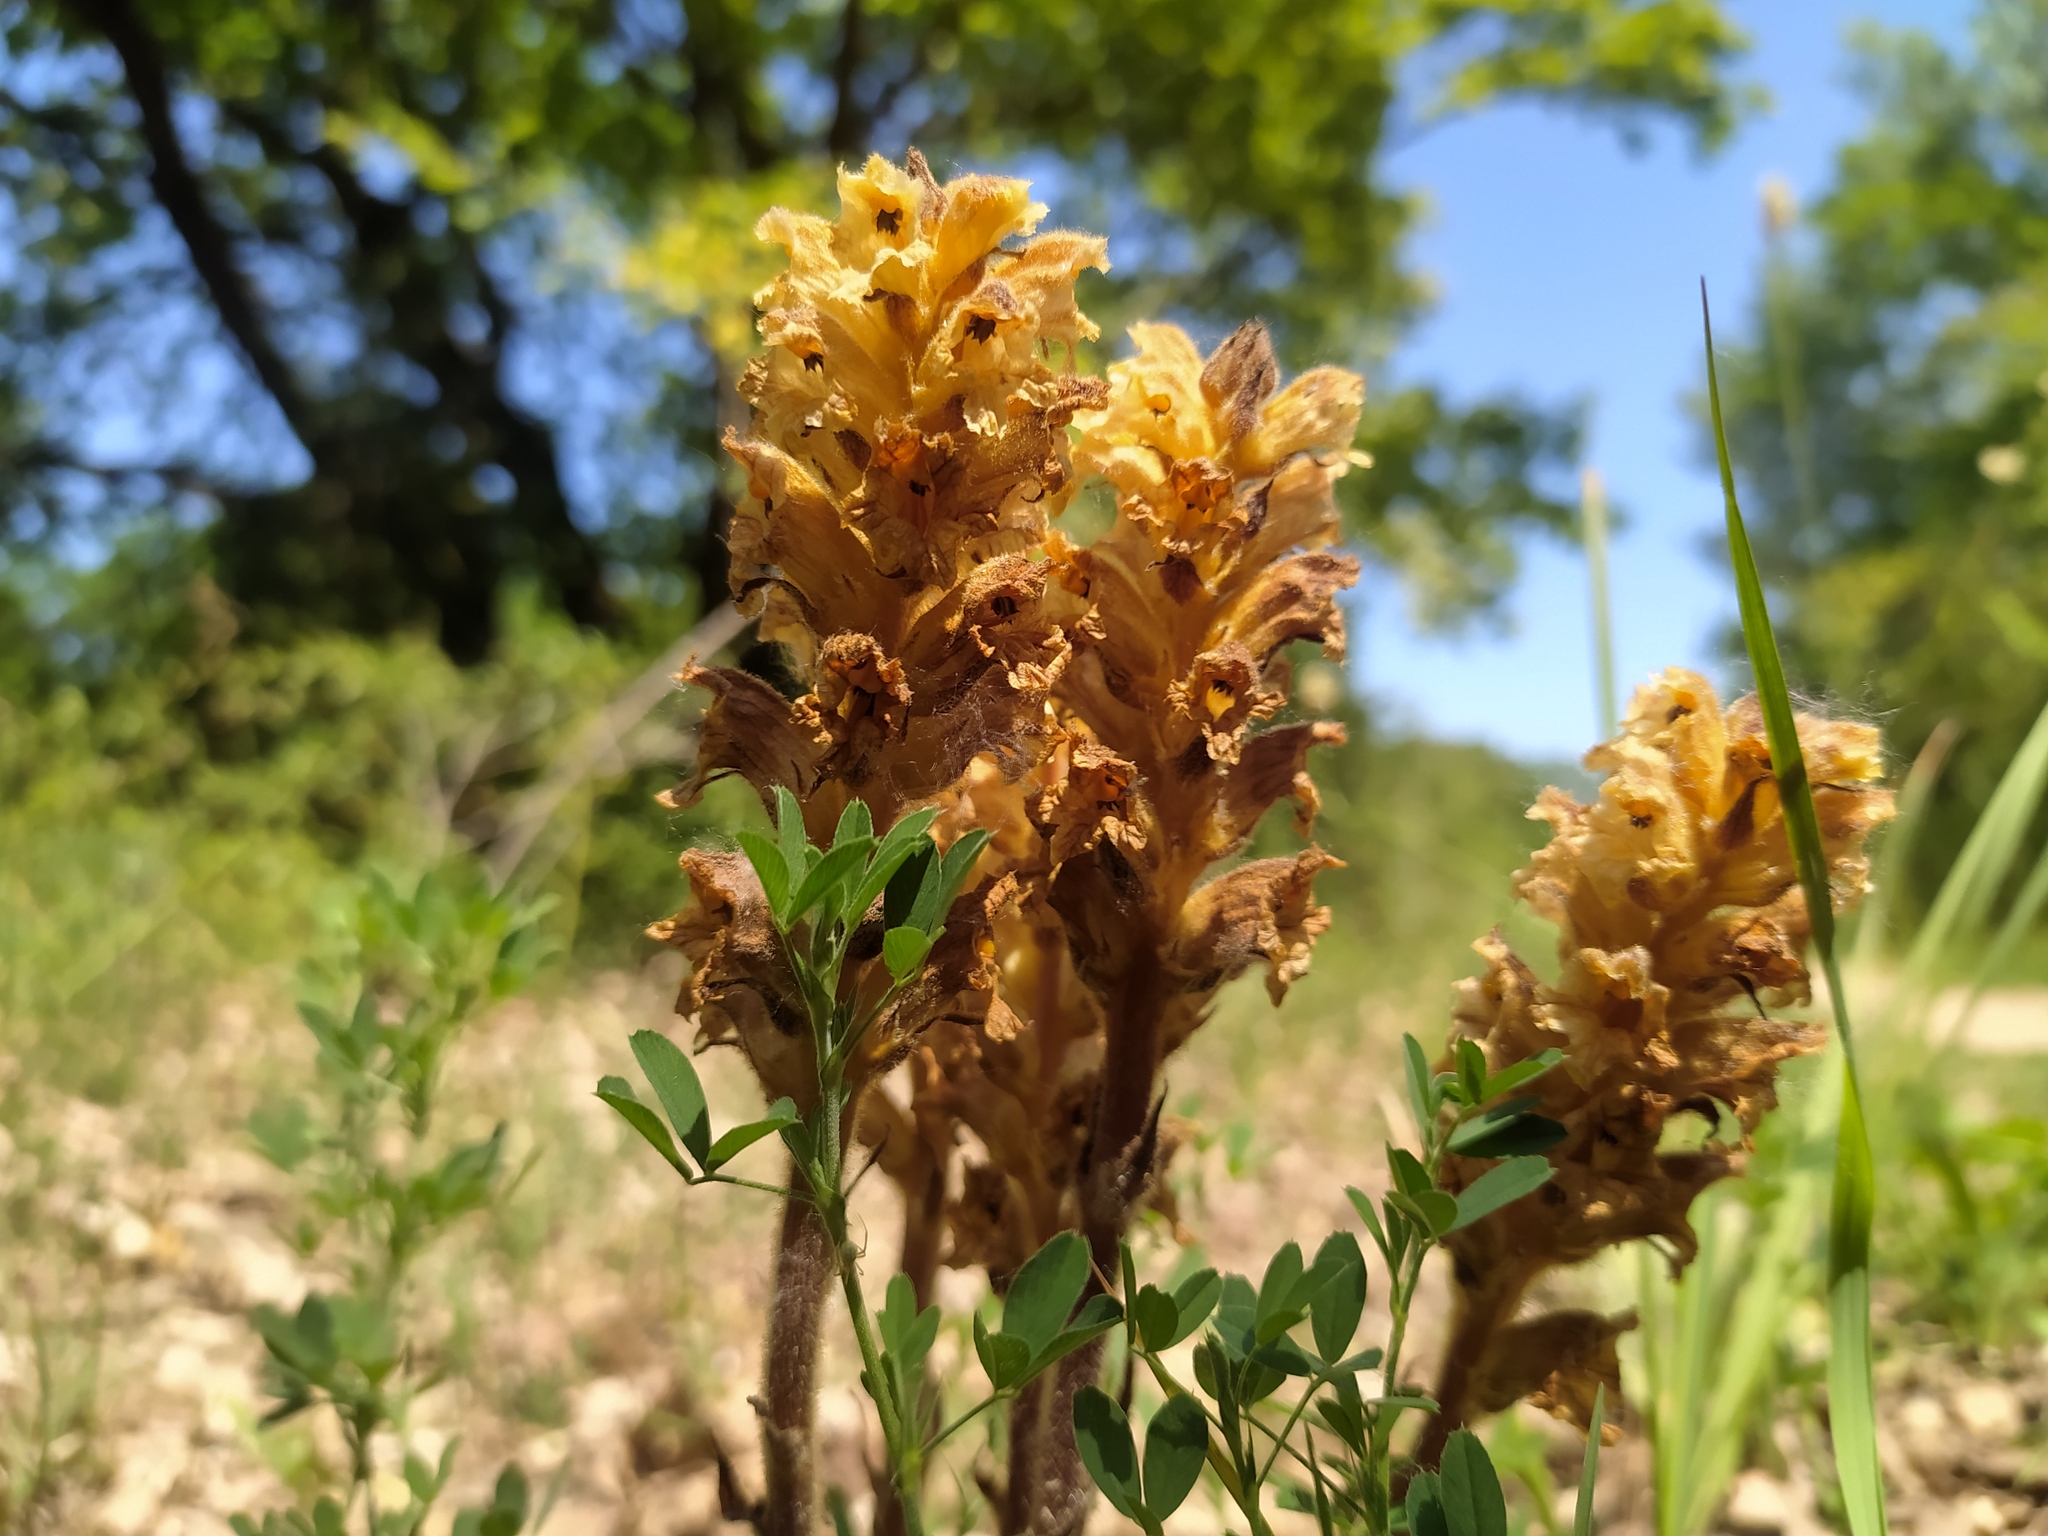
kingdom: Plantae
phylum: Tracheophyta
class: Magnoliopsida
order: Lamiales
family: Orobanchaceae
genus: Orobanche
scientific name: Orobanche lutea
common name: Yellow broomrape
